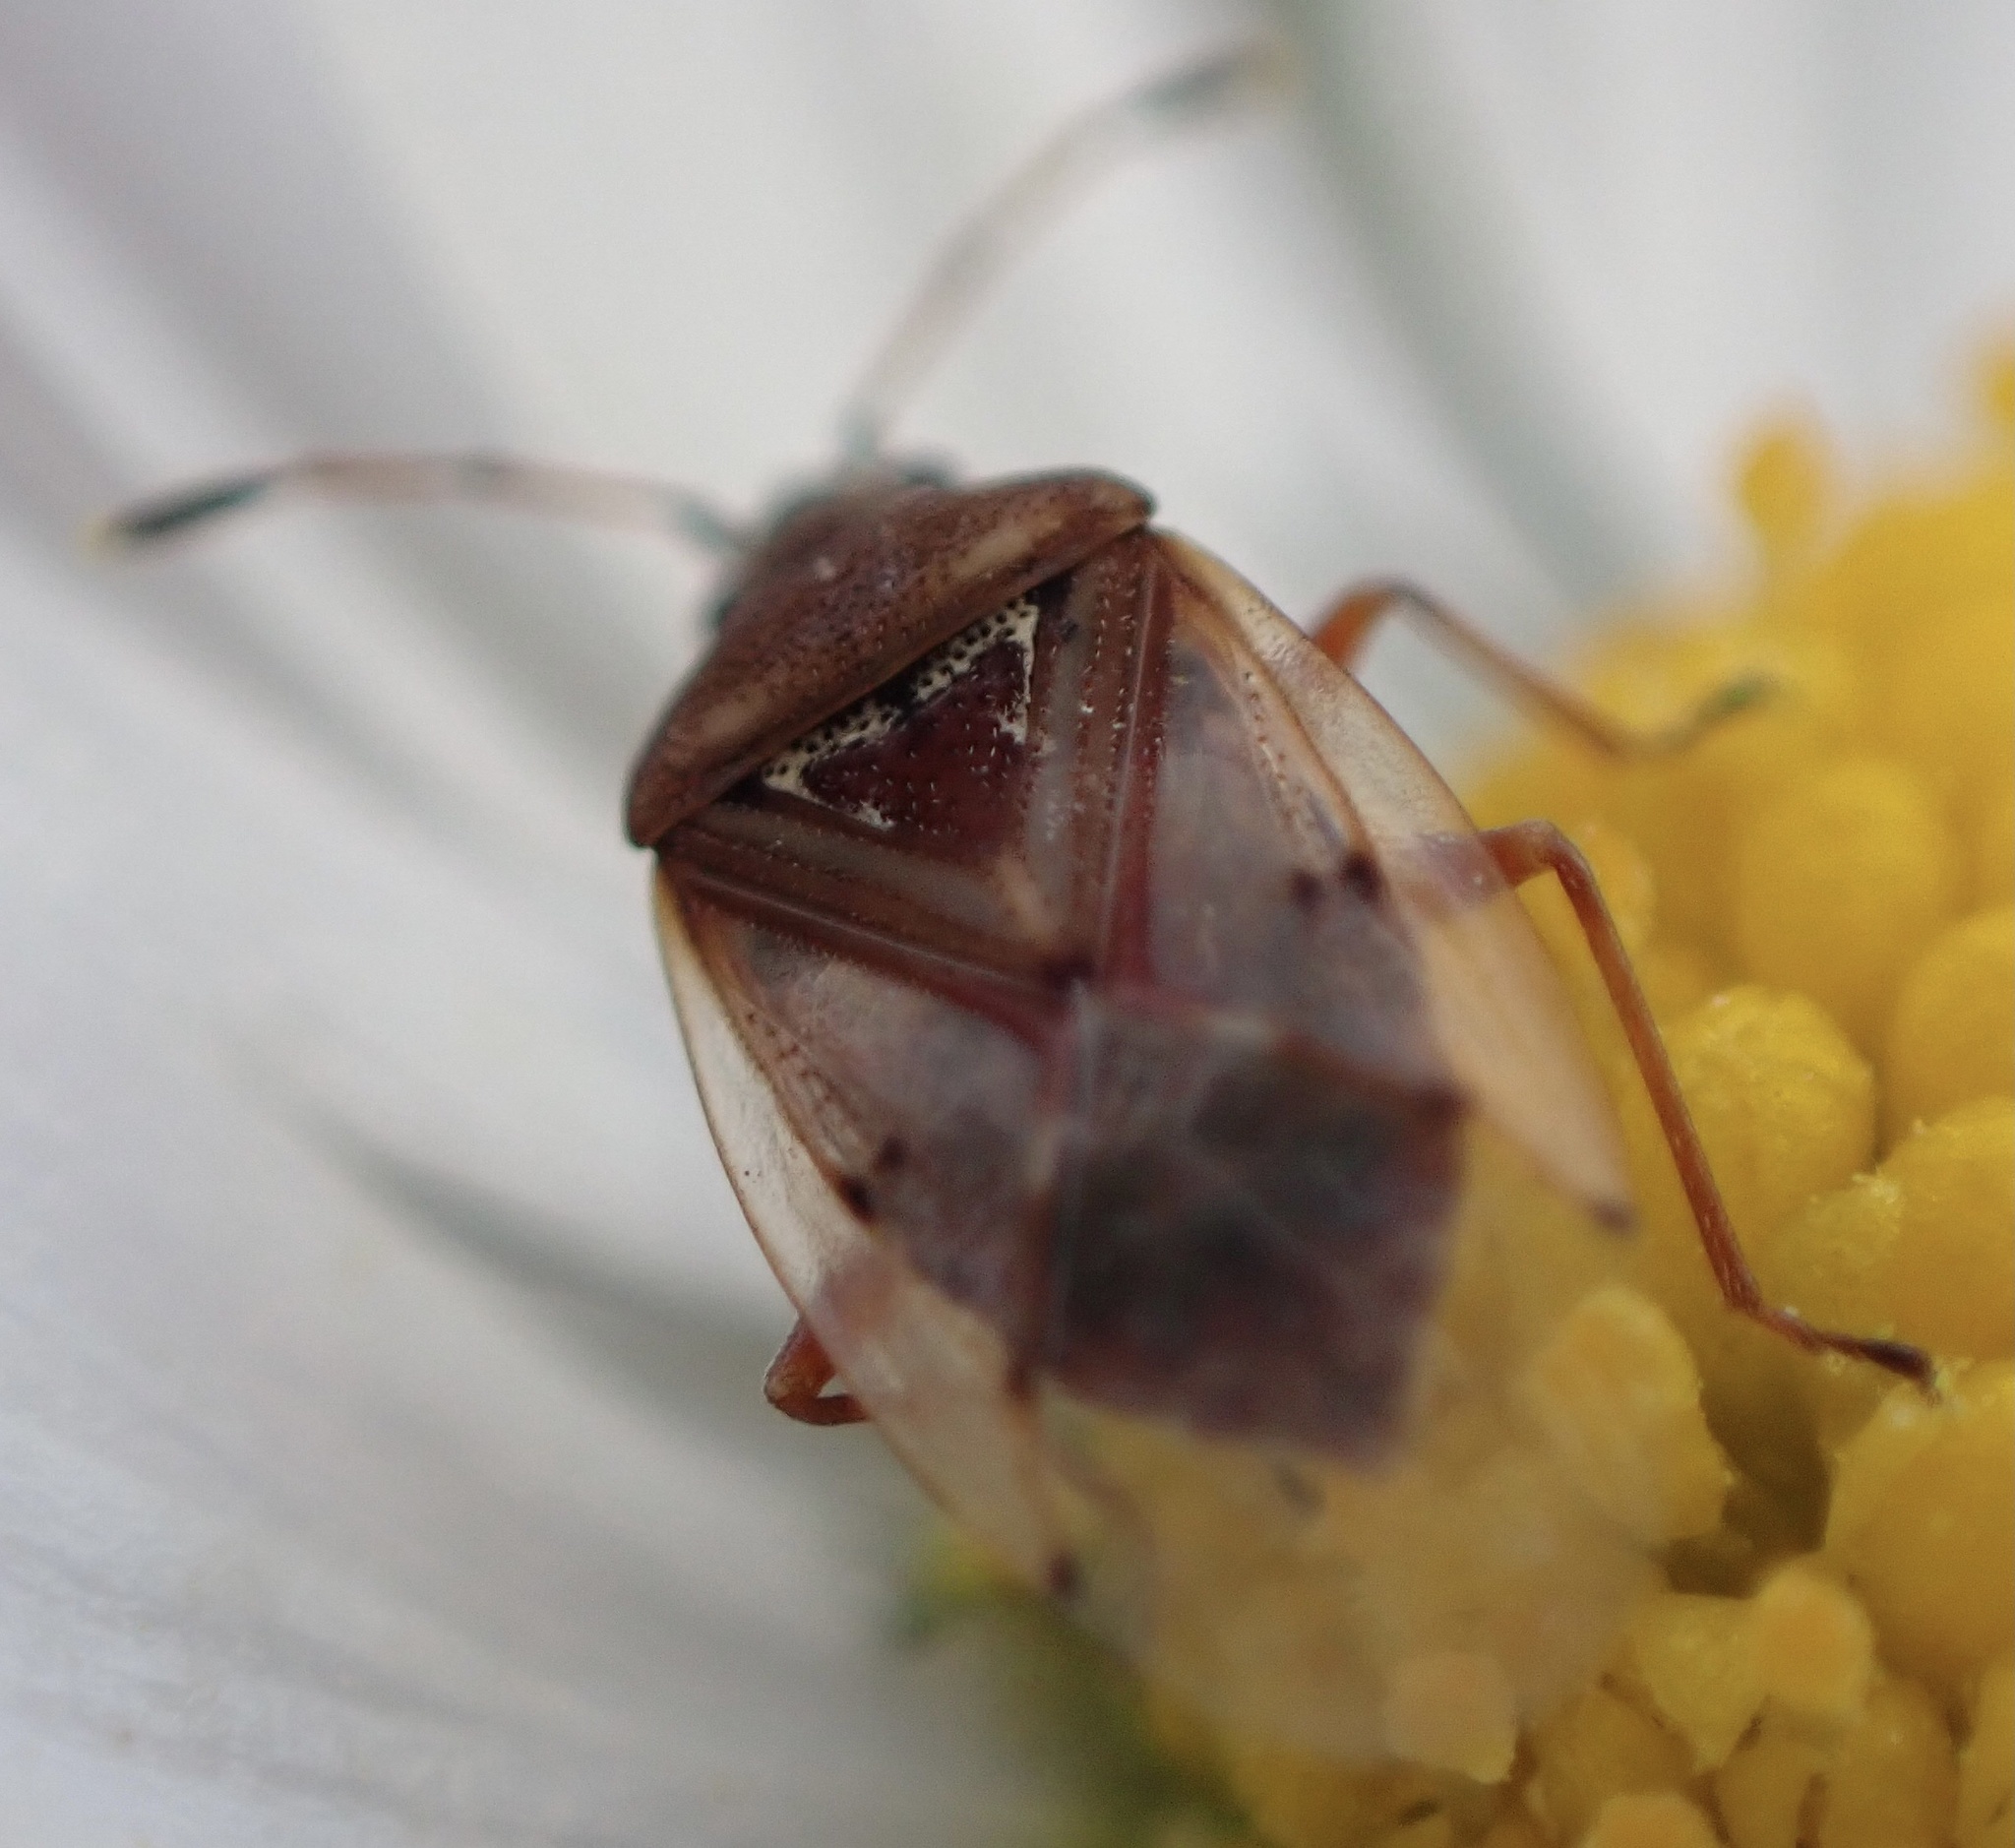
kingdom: Animalia
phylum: Arthropoda
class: Insecta
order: Hemiptera
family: Lygaeidae
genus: Kleidocerys
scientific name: Kleidocerys resedae
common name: Birch catkin bug
